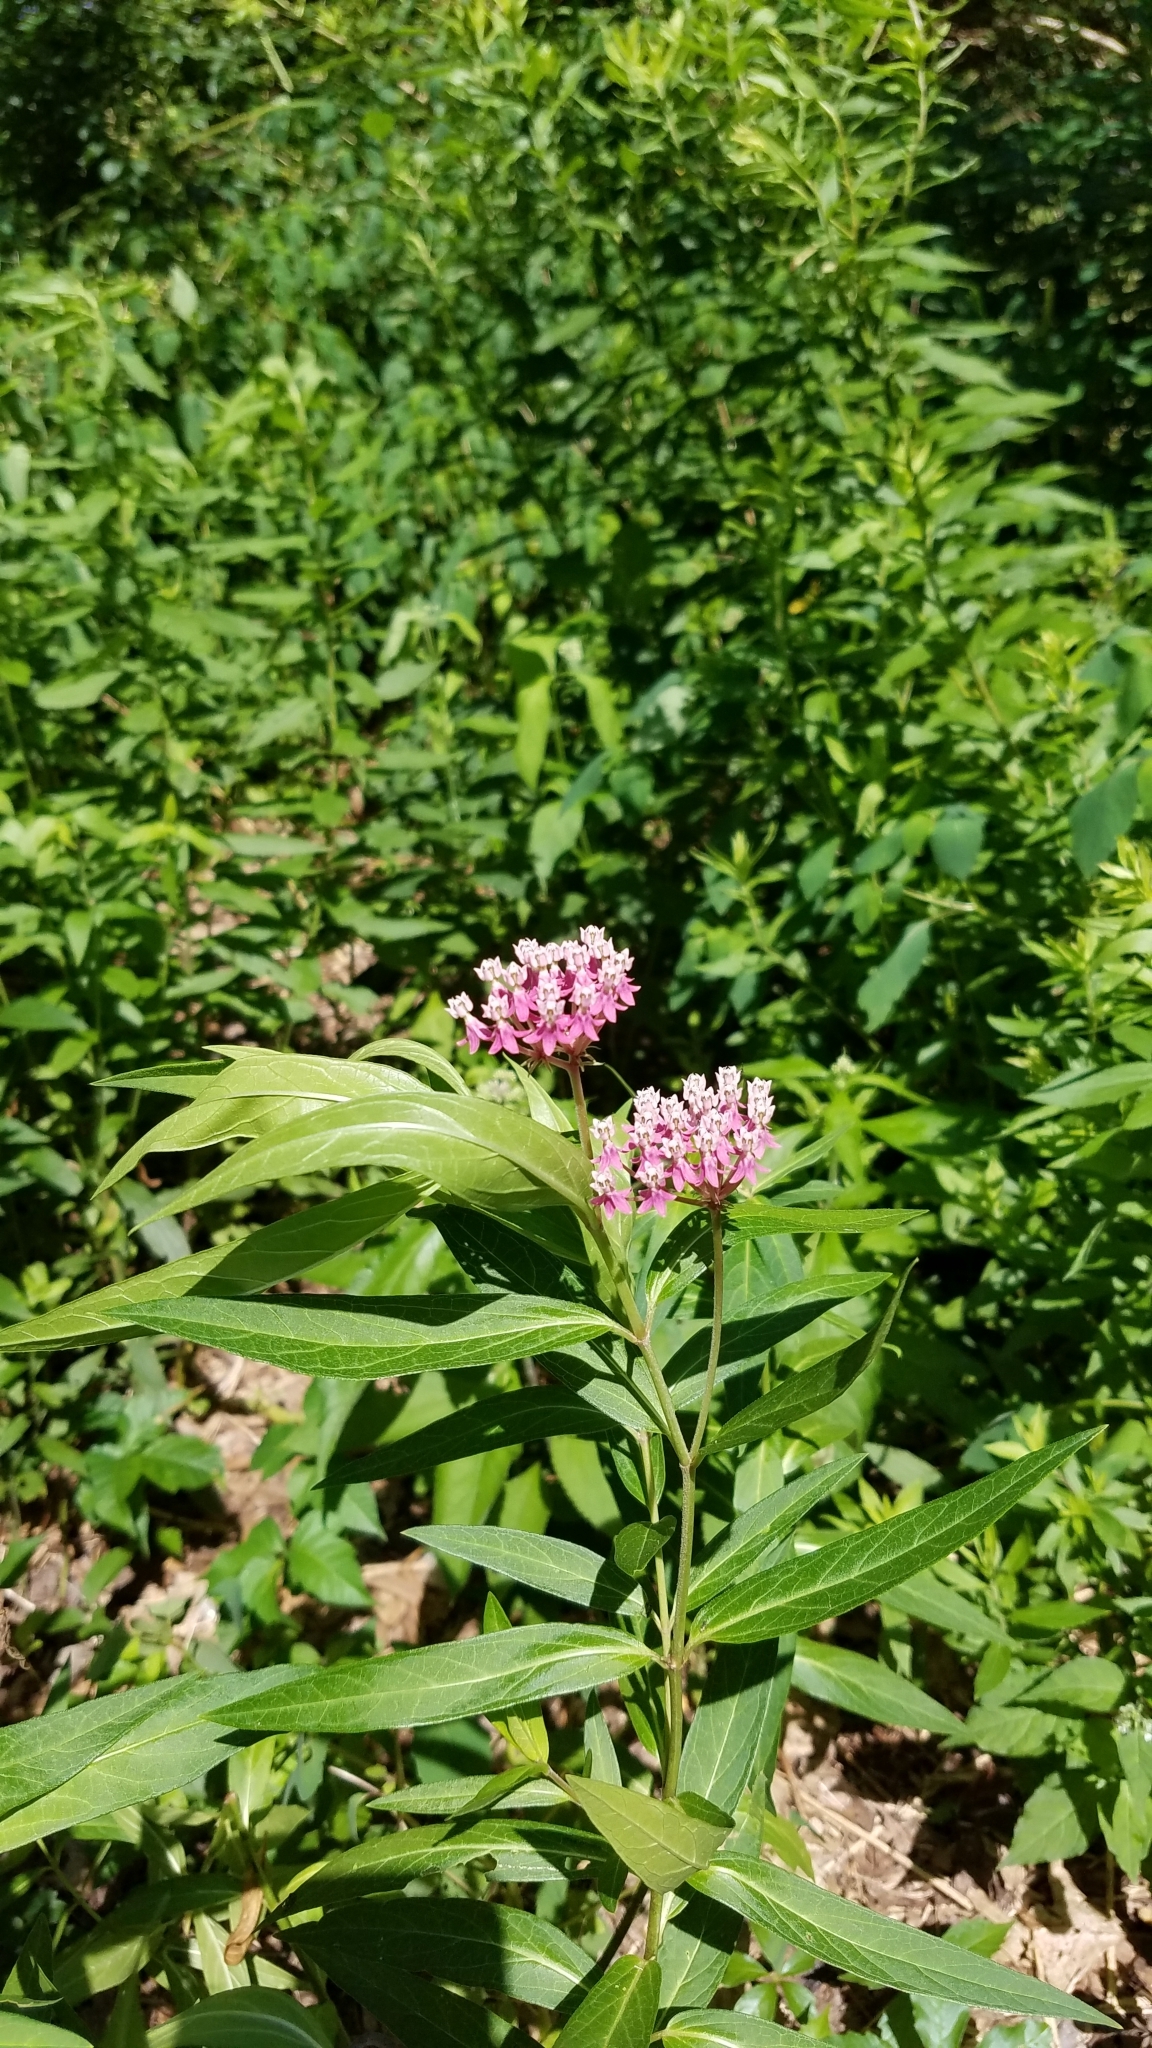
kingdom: Plantae
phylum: Tracheophyta
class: Magnoliopsida
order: Gentianales
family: Apocynaceae
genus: Asclepias
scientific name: Asclepias incarnata
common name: Swamp milkweed
